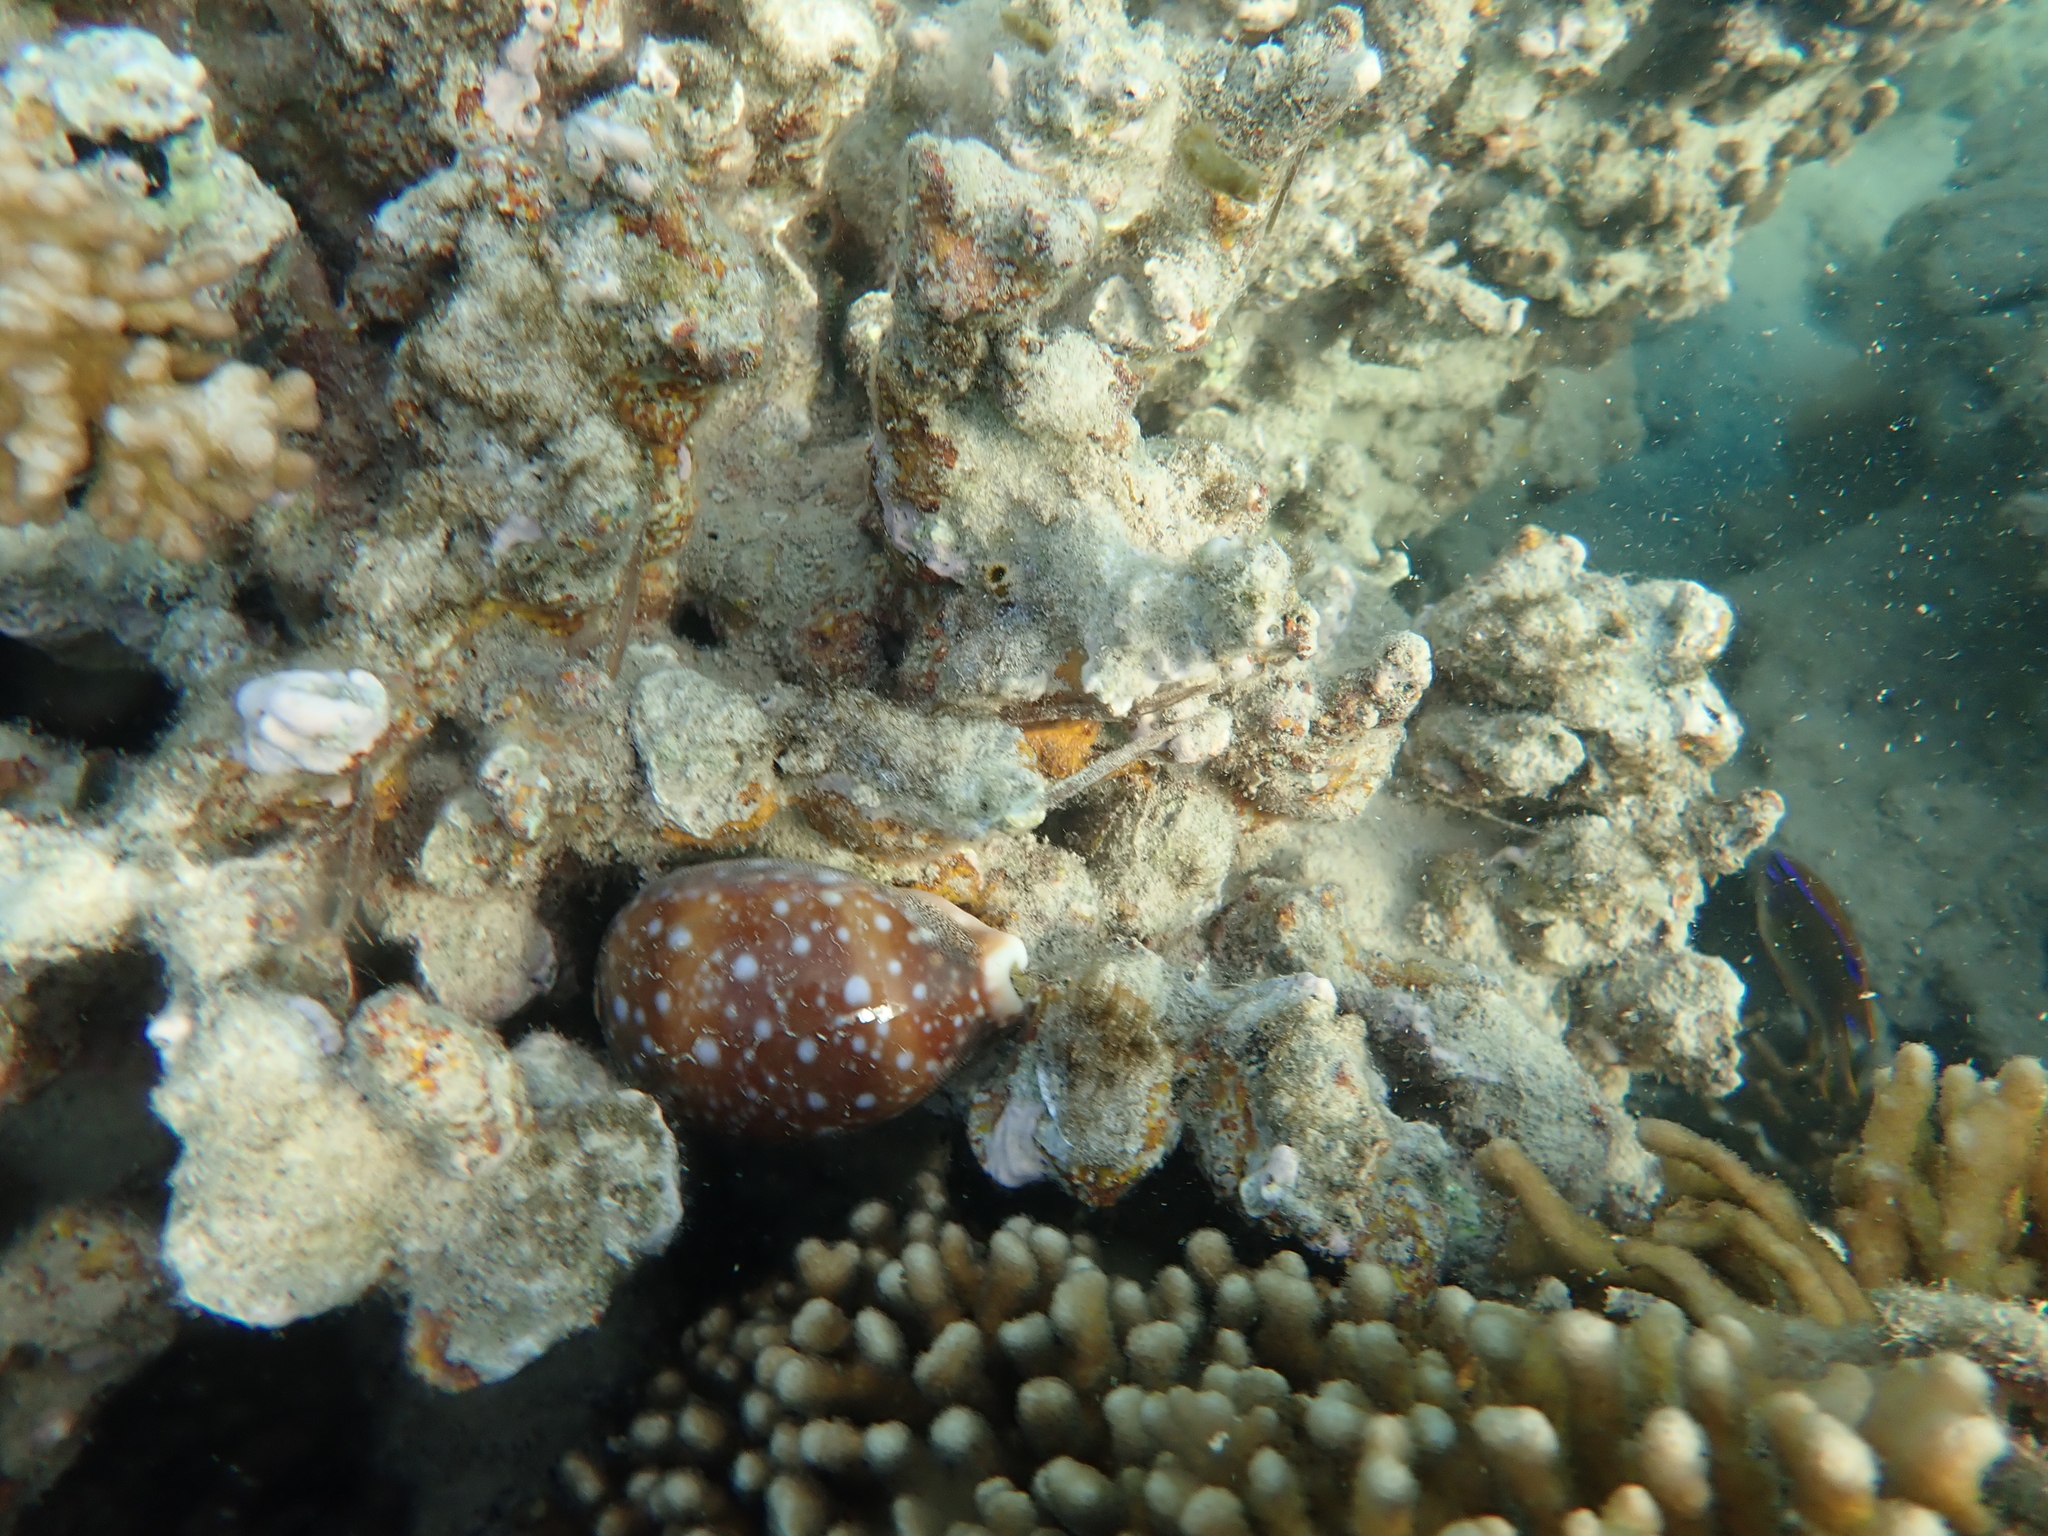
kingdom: Animalia
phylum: Mollusca
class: Gastropoda
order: Littorinimorpha
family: Cypraeidae
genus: Lyncina
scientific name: Lyncina vitellus
